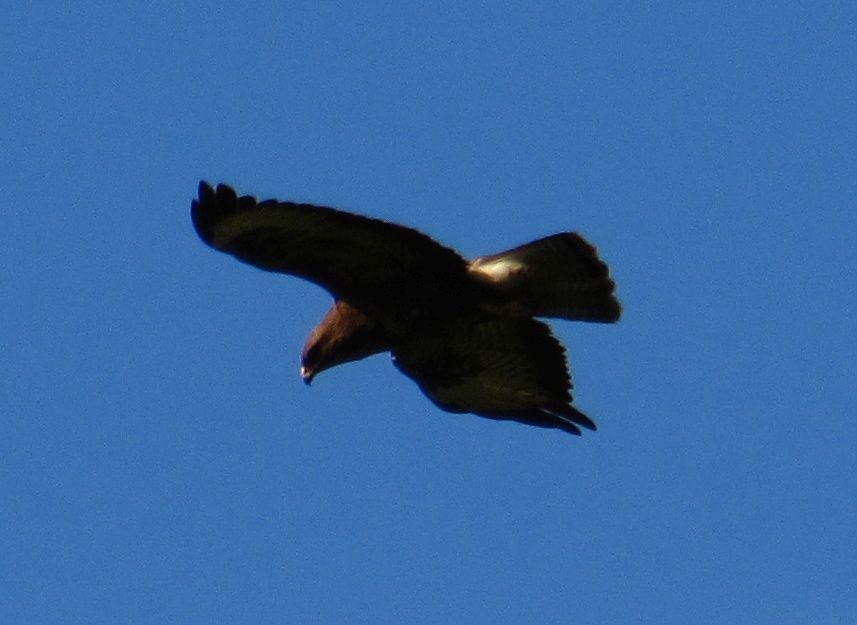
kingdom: Animalia
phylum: Chordata
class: Aves
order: Accipitriformes
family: Accipitridae
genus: Buteo
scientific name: Buteo buteo
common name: Common buzzard
